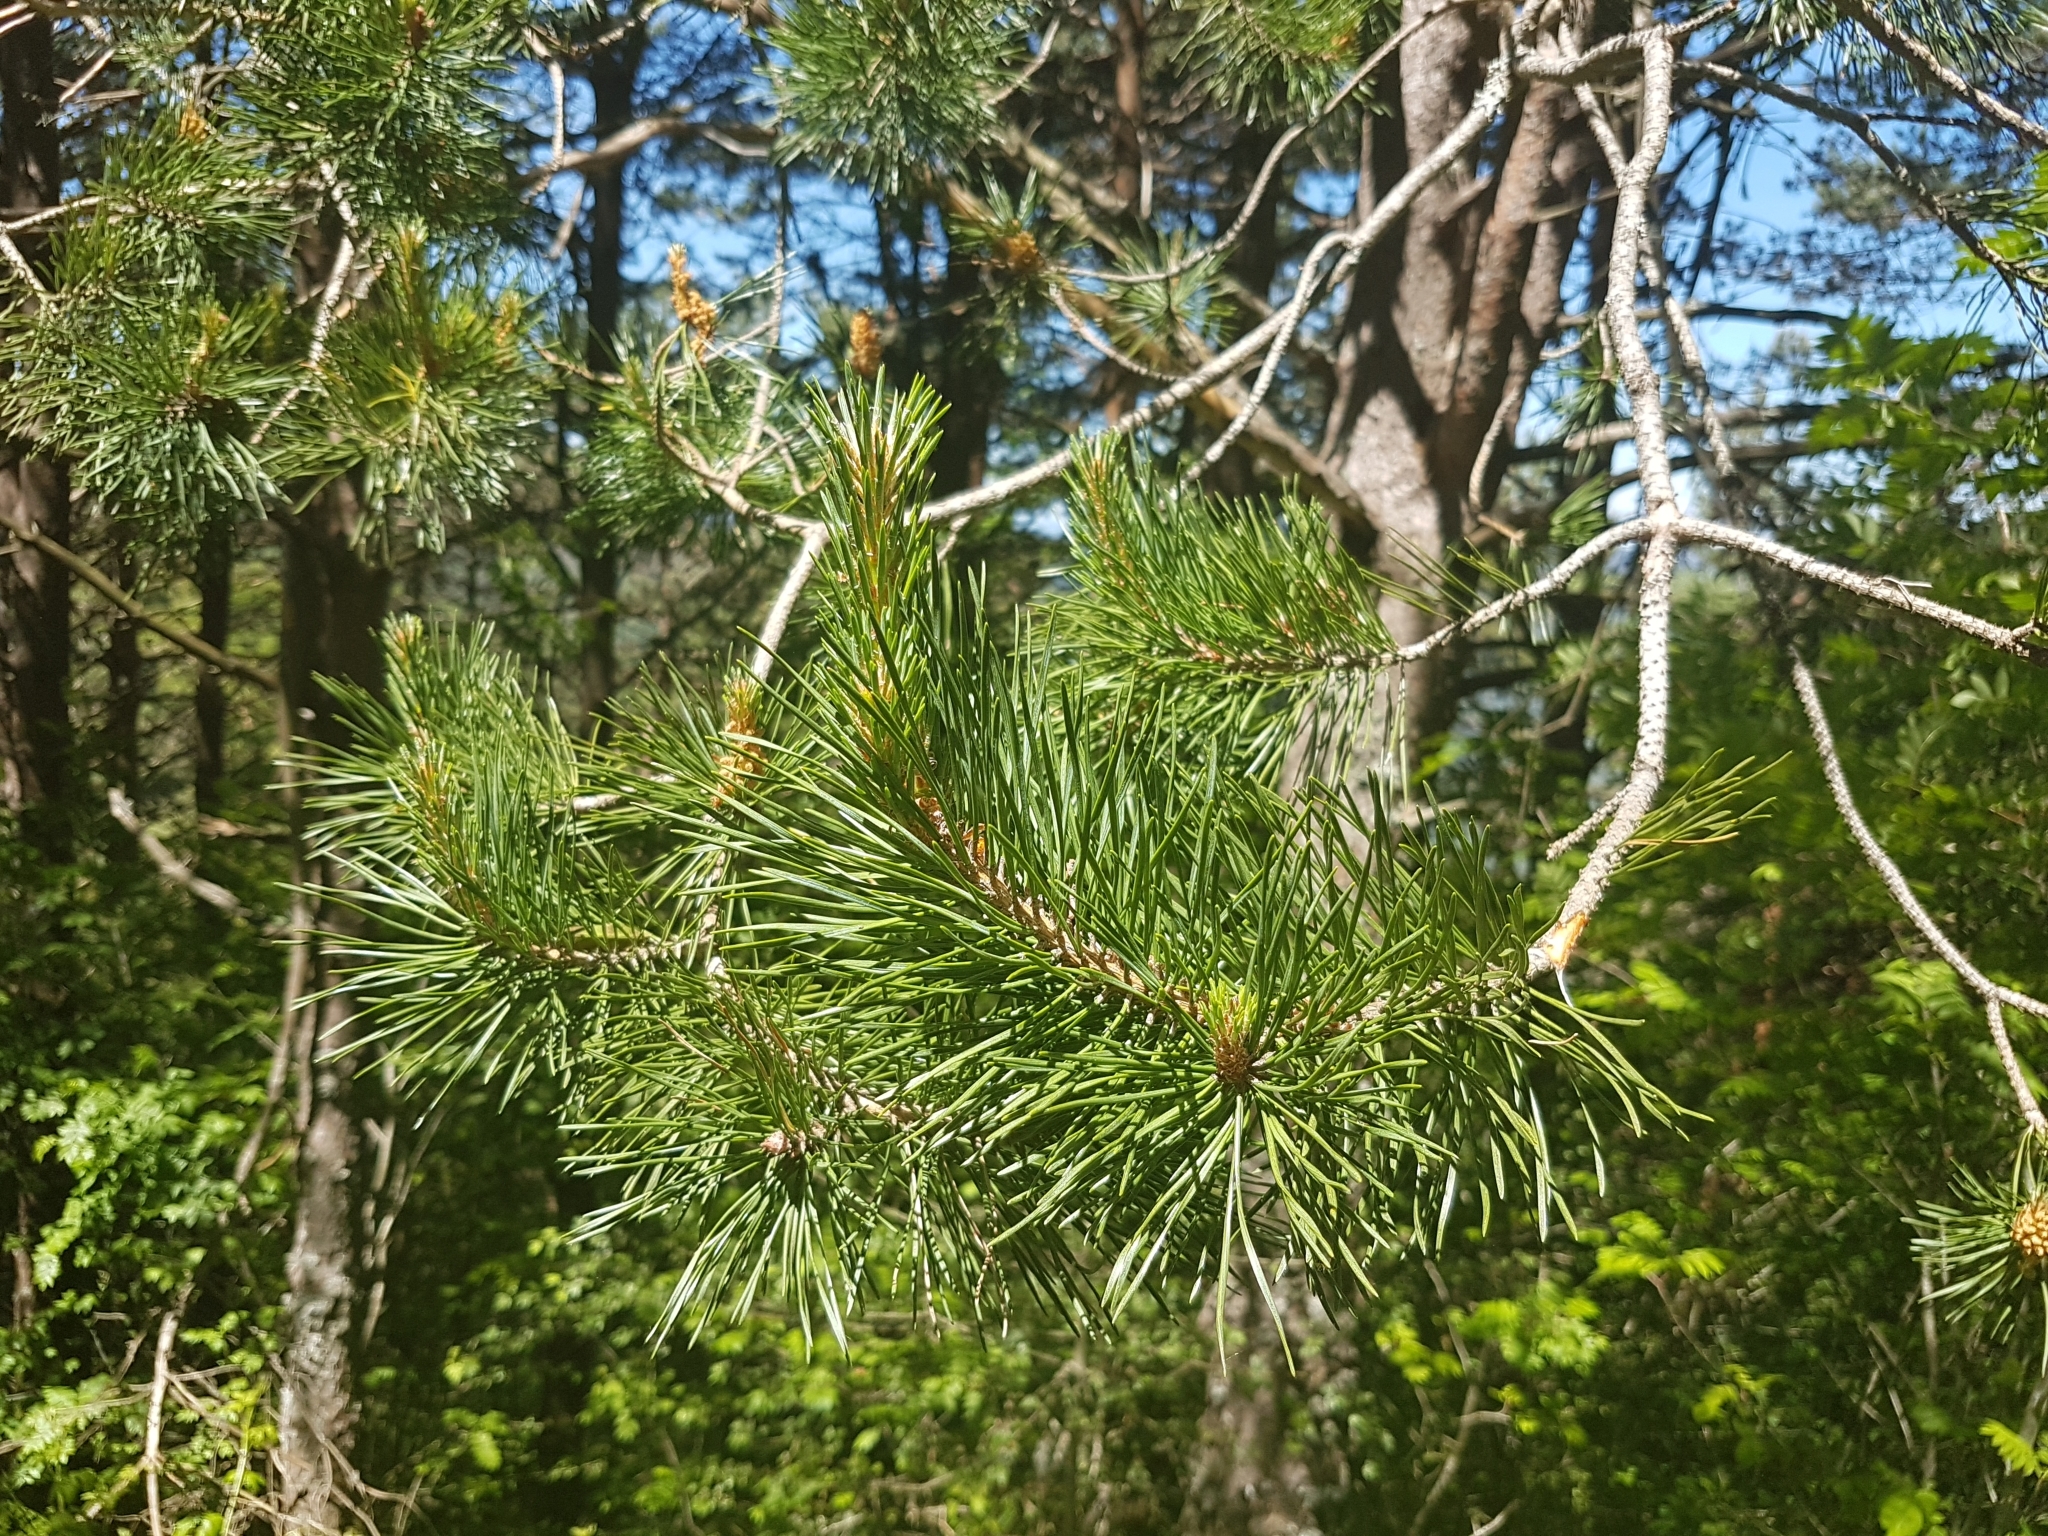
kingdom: Plantae
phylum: Tracheophyta
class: Pinopsida
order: Pinales
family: Pinaceae
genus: Pinus
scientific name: Pinus sylvestris
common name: Scots pine
